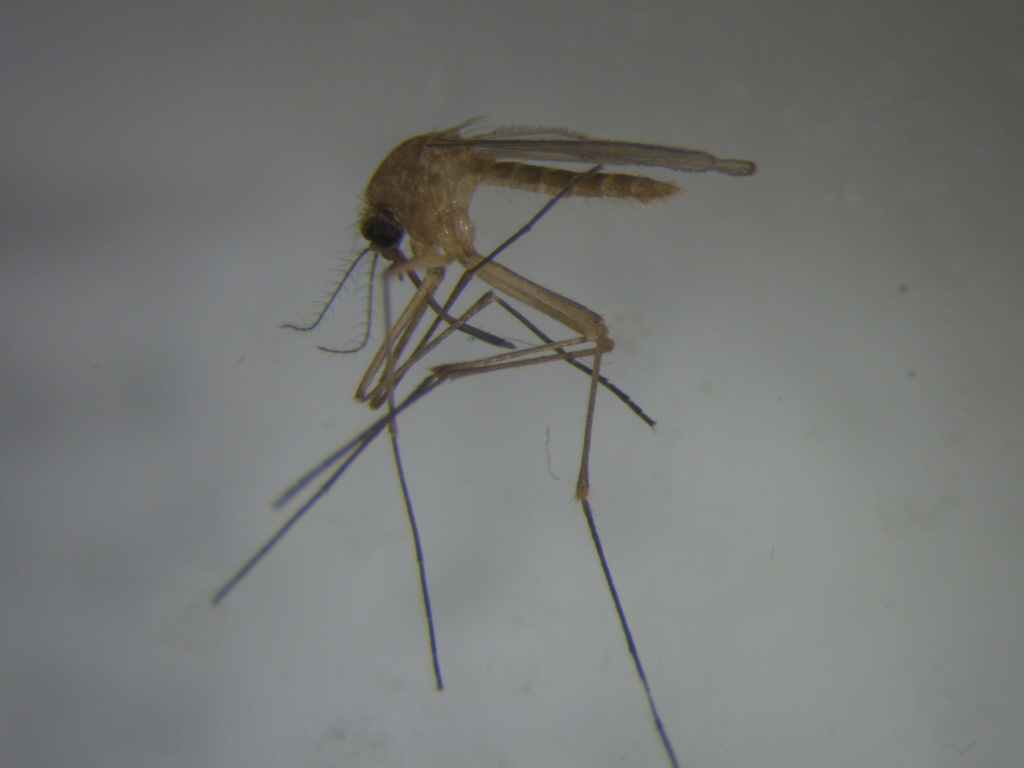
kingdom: Animalia
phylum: Arthropoda
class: Insecta
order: Diptera
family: Culicidae
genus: Culex
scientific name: Culex quinquefasciatus
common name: Southern house mosquito
